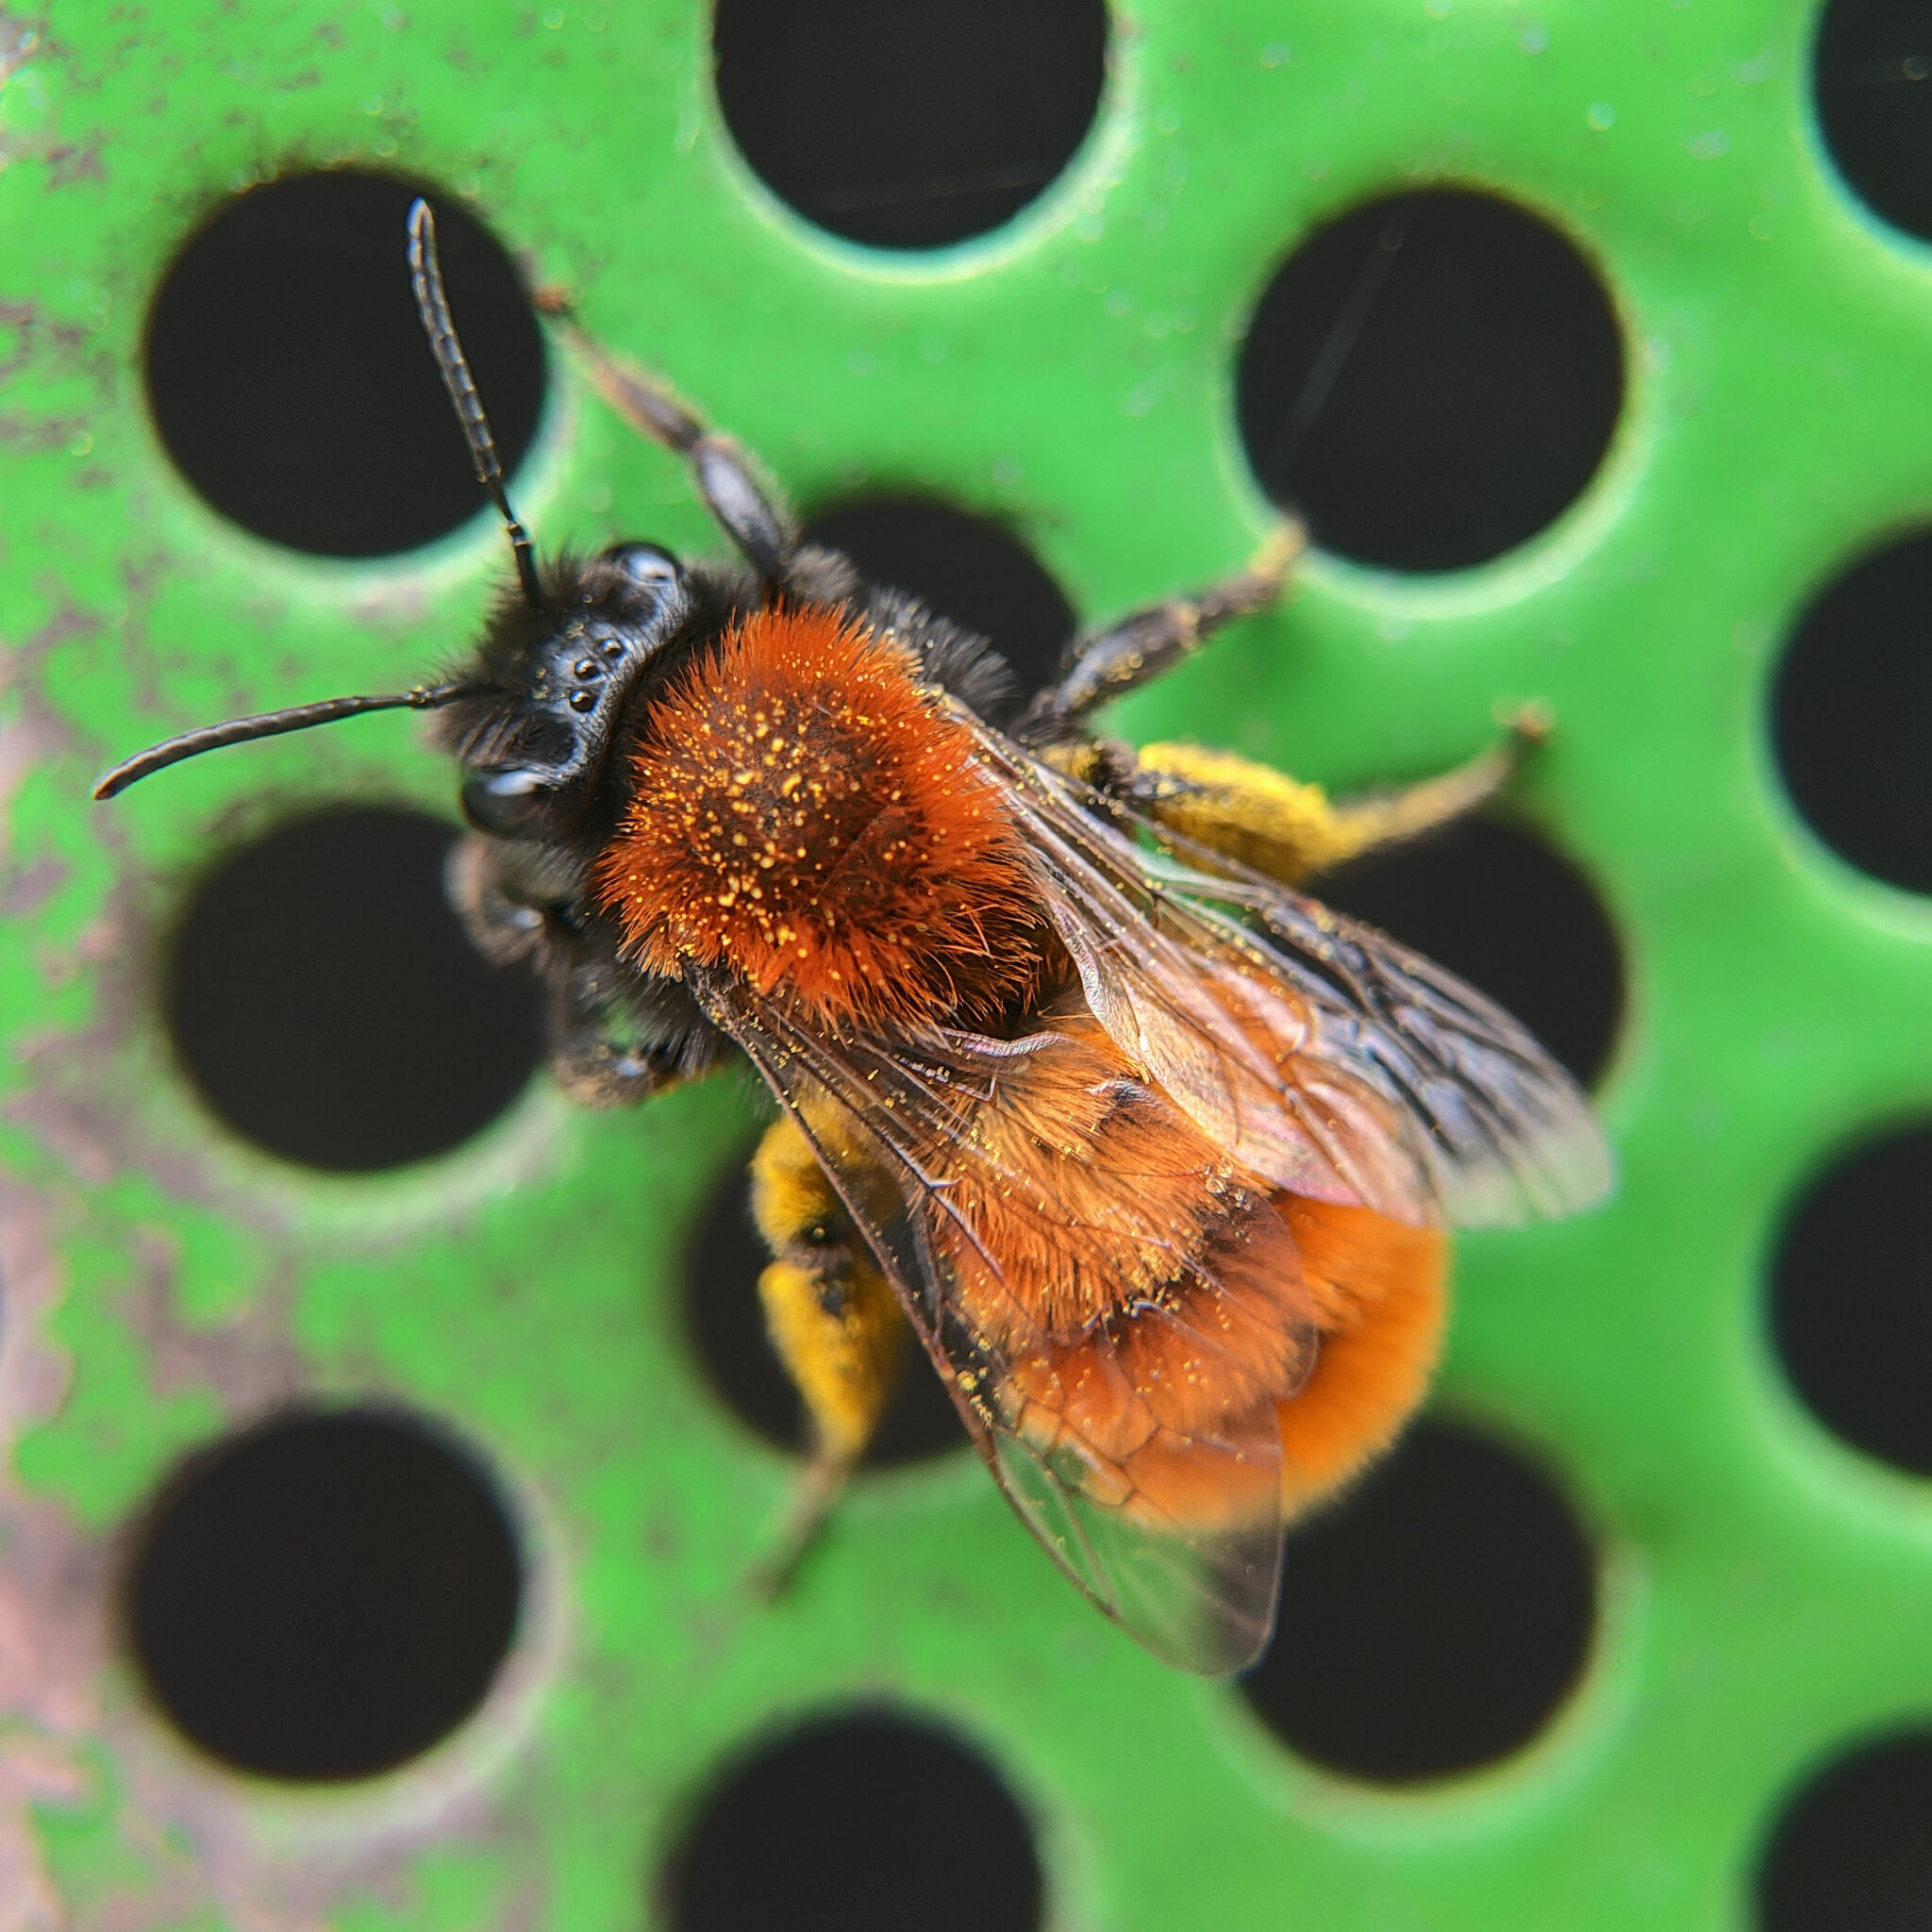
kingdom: Animalia
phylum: Arthropoda
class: Insecta
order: Hymenoptera
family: Andrenidae
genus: Andrena
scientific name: Andrena fulva
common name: Tawny mining bee
